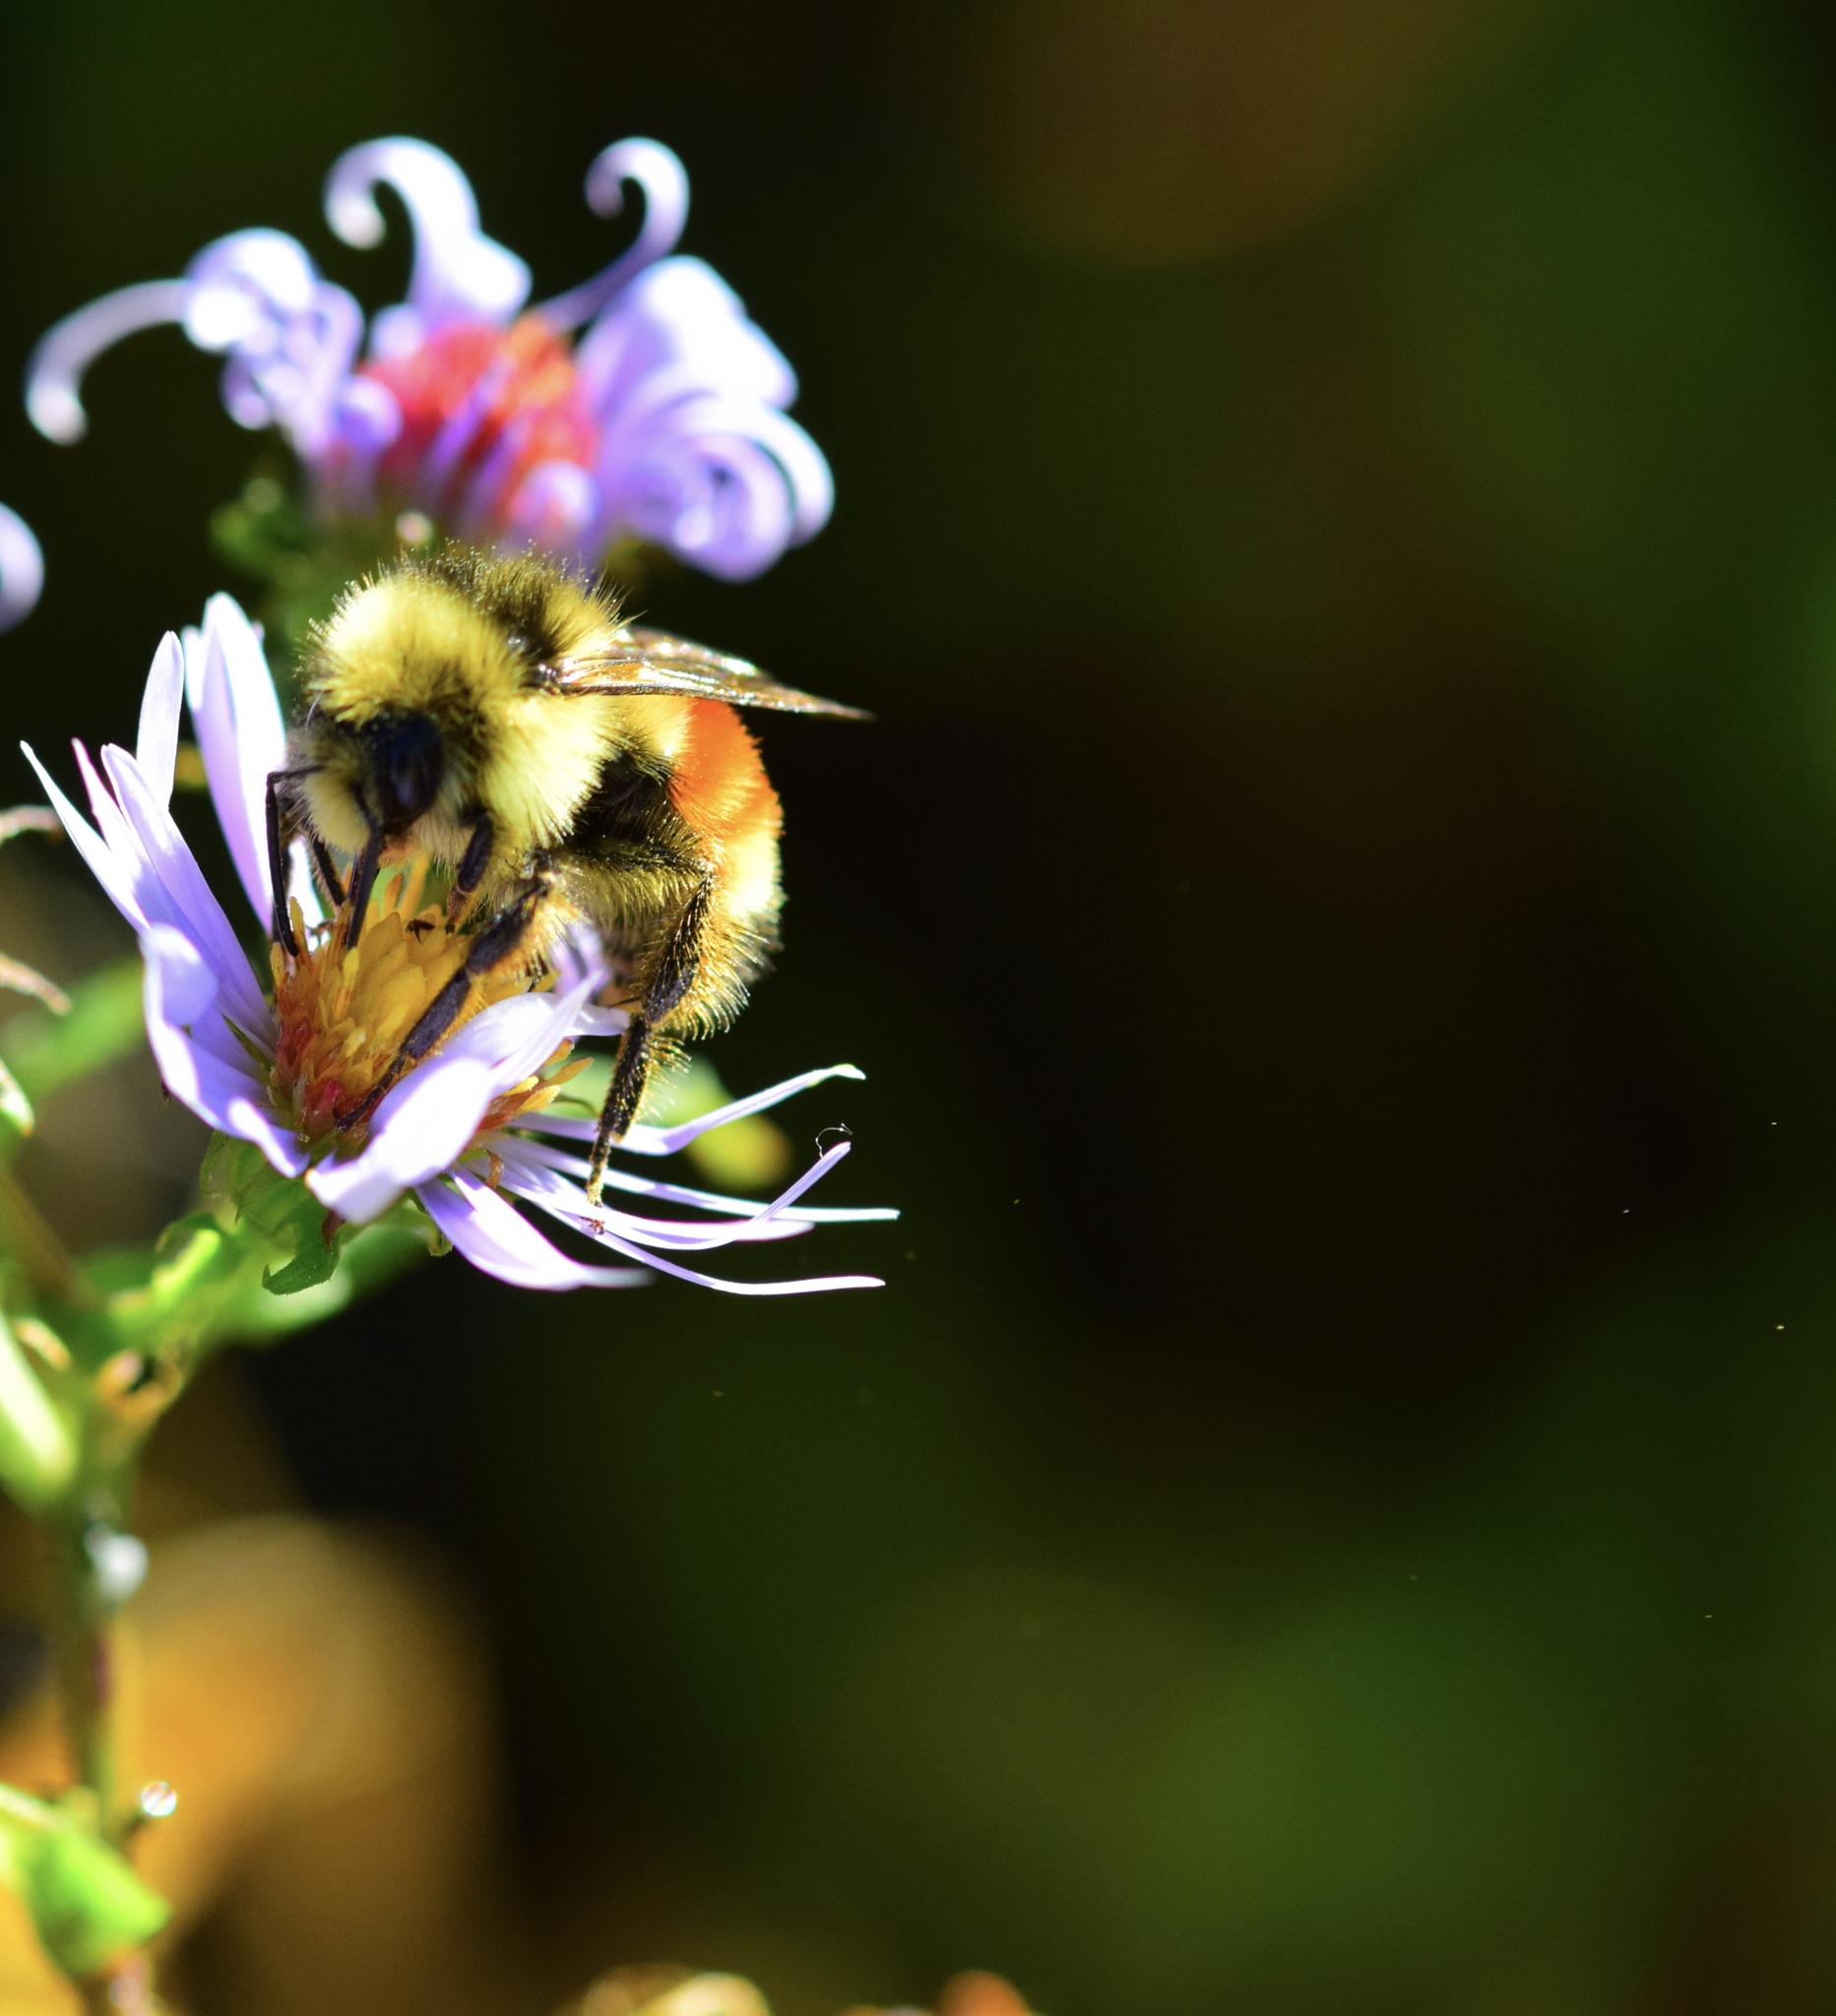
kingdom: Animalia
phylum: Arthropoda
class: Insecta
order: Hymenoptera
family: Apidae
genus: Bombus
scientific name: Bombus ternarius
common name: Tri-colored bumble bee
